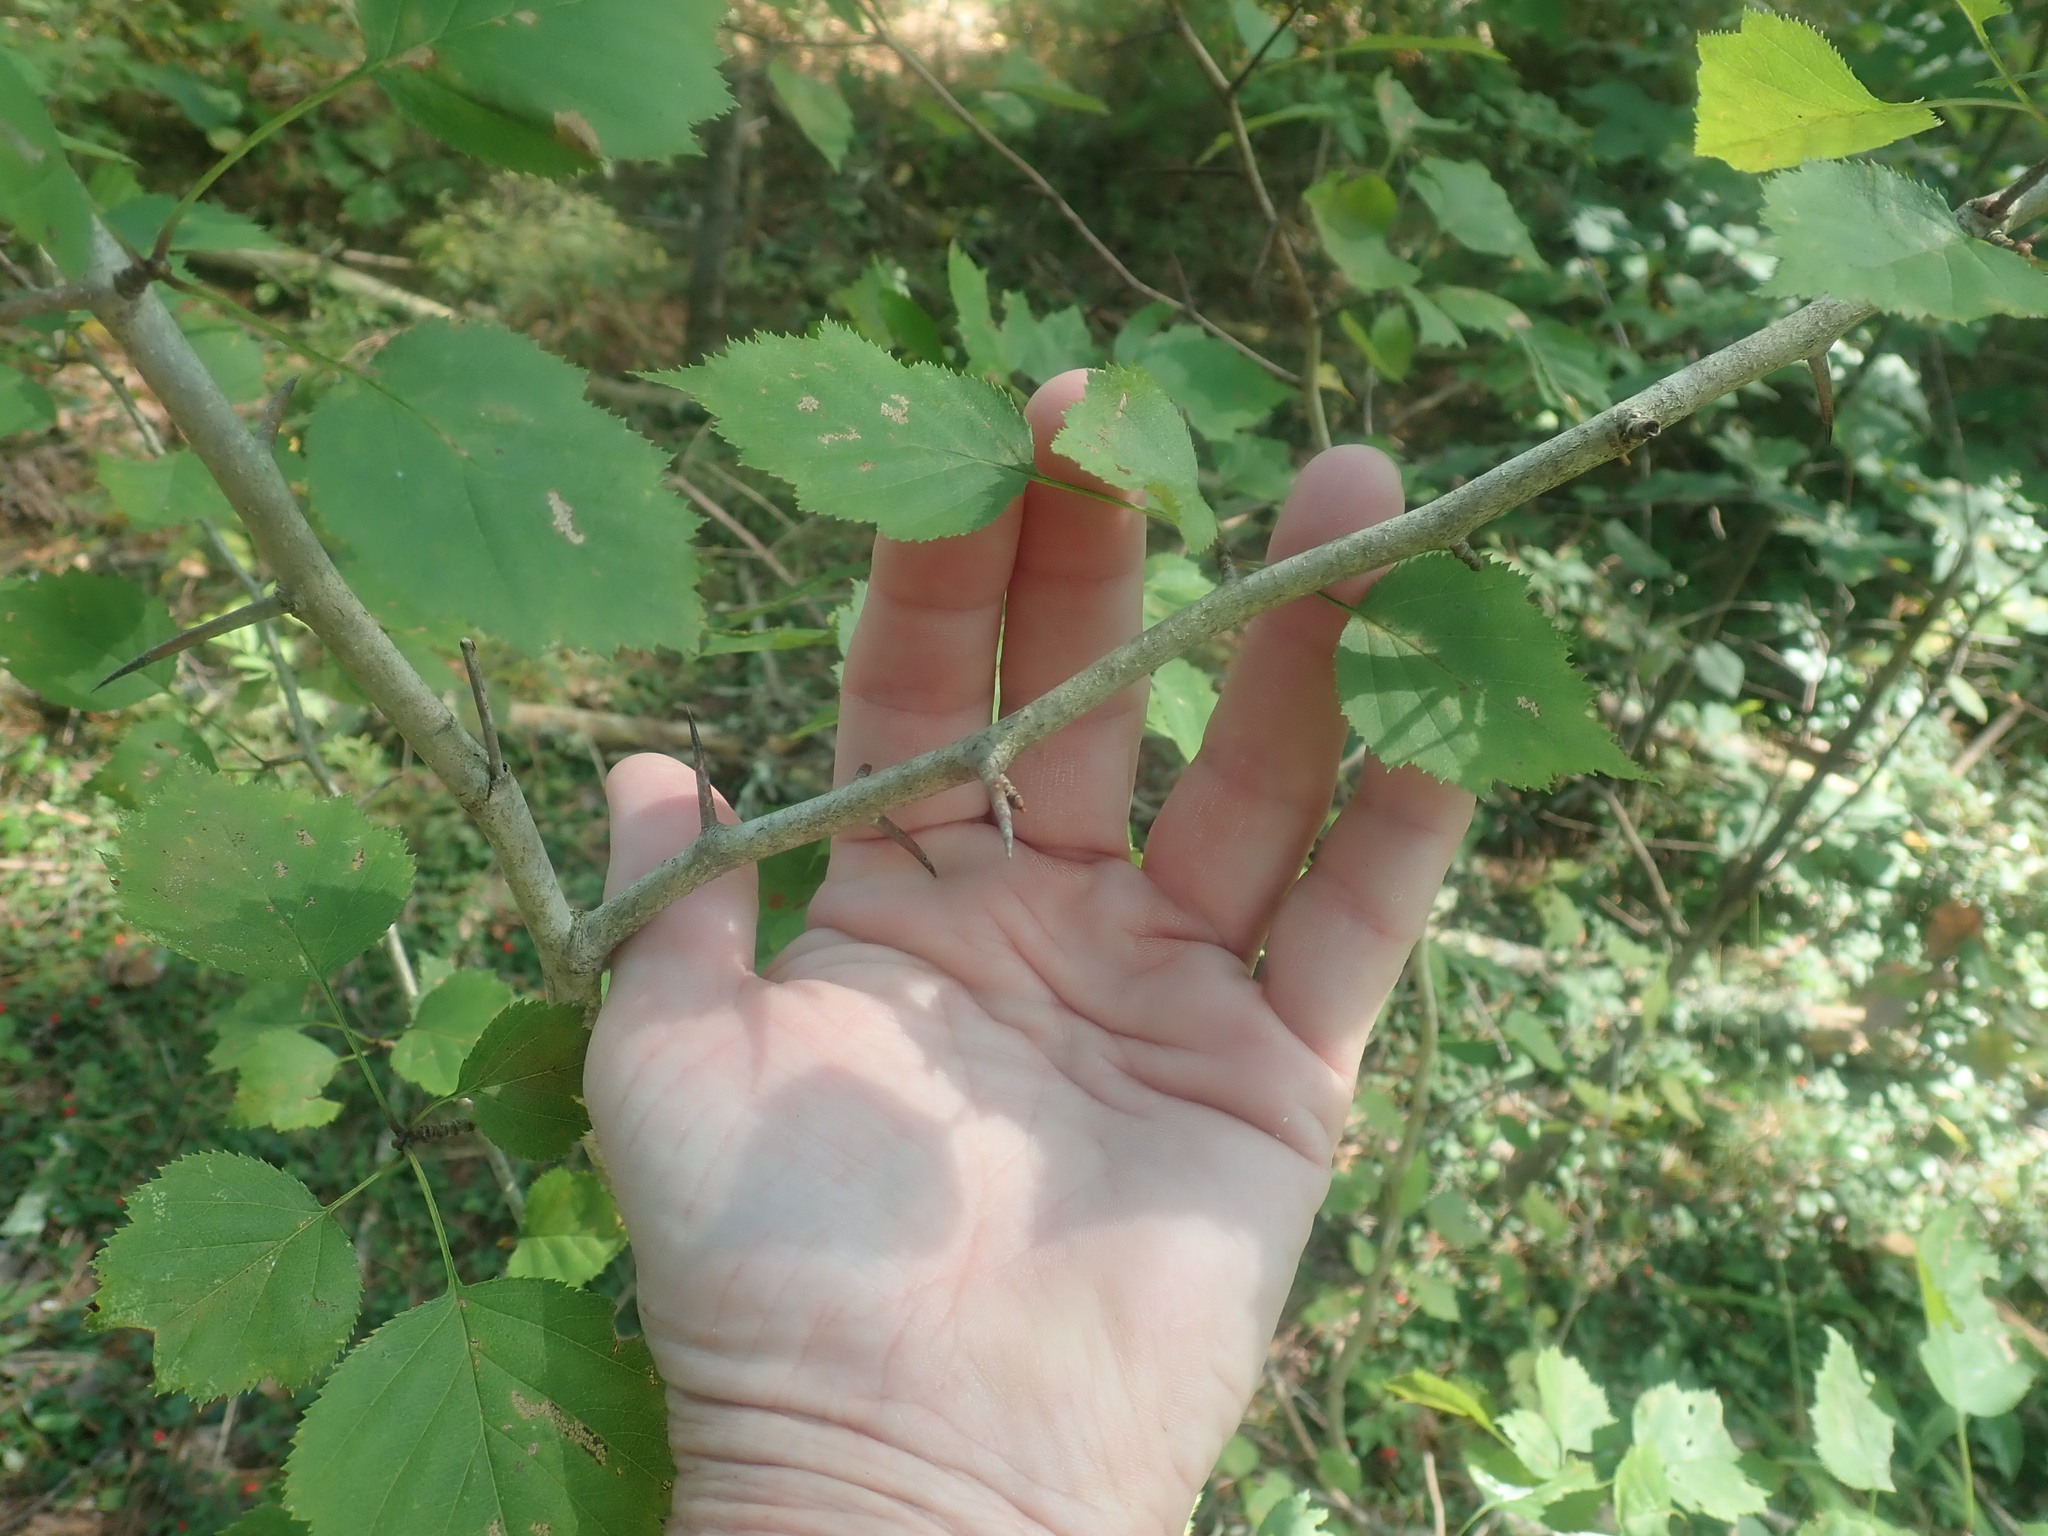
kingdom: Plantae
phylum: Tracheophyta
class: Magnoliopsida
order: Rosales
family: Rosaceae
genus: Crataegus
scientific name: Crataegus
